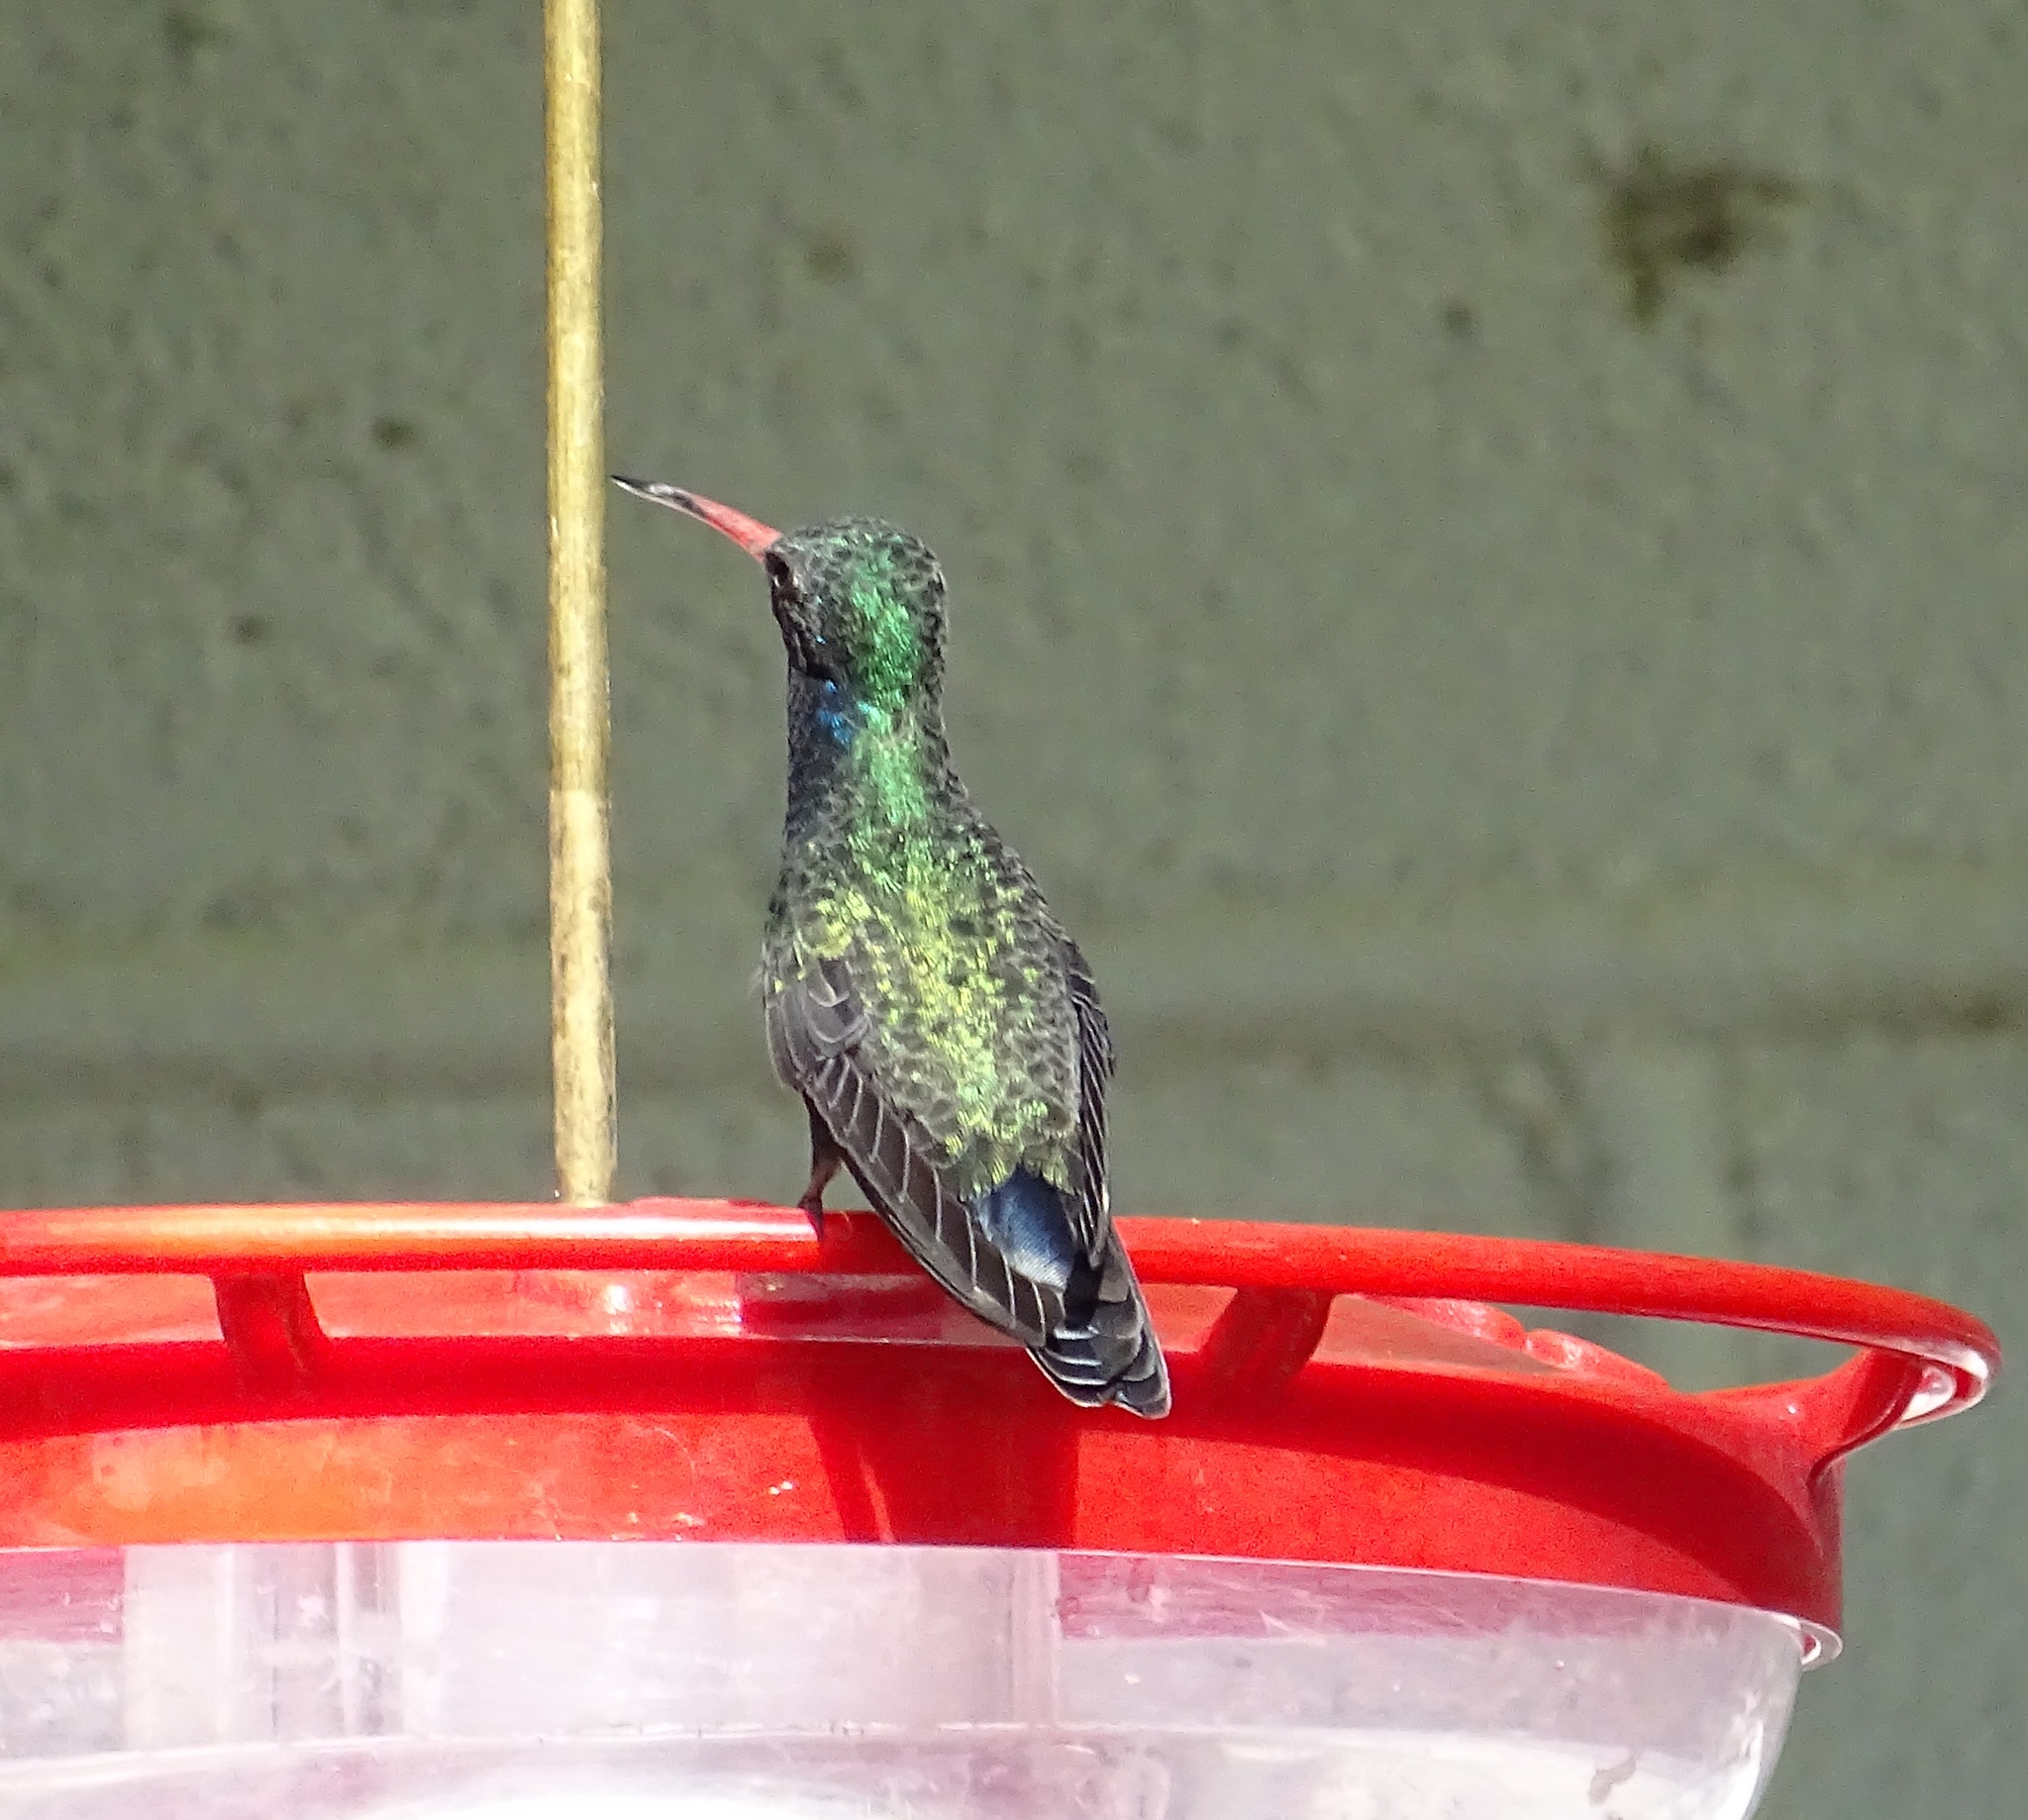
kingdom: Animalia
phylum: Chordata
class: Aves
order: Apodiformes
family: Trochilidae
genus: Cynanthus
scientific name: Cynanthus latirostris
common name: Broad-billed hummingbird
